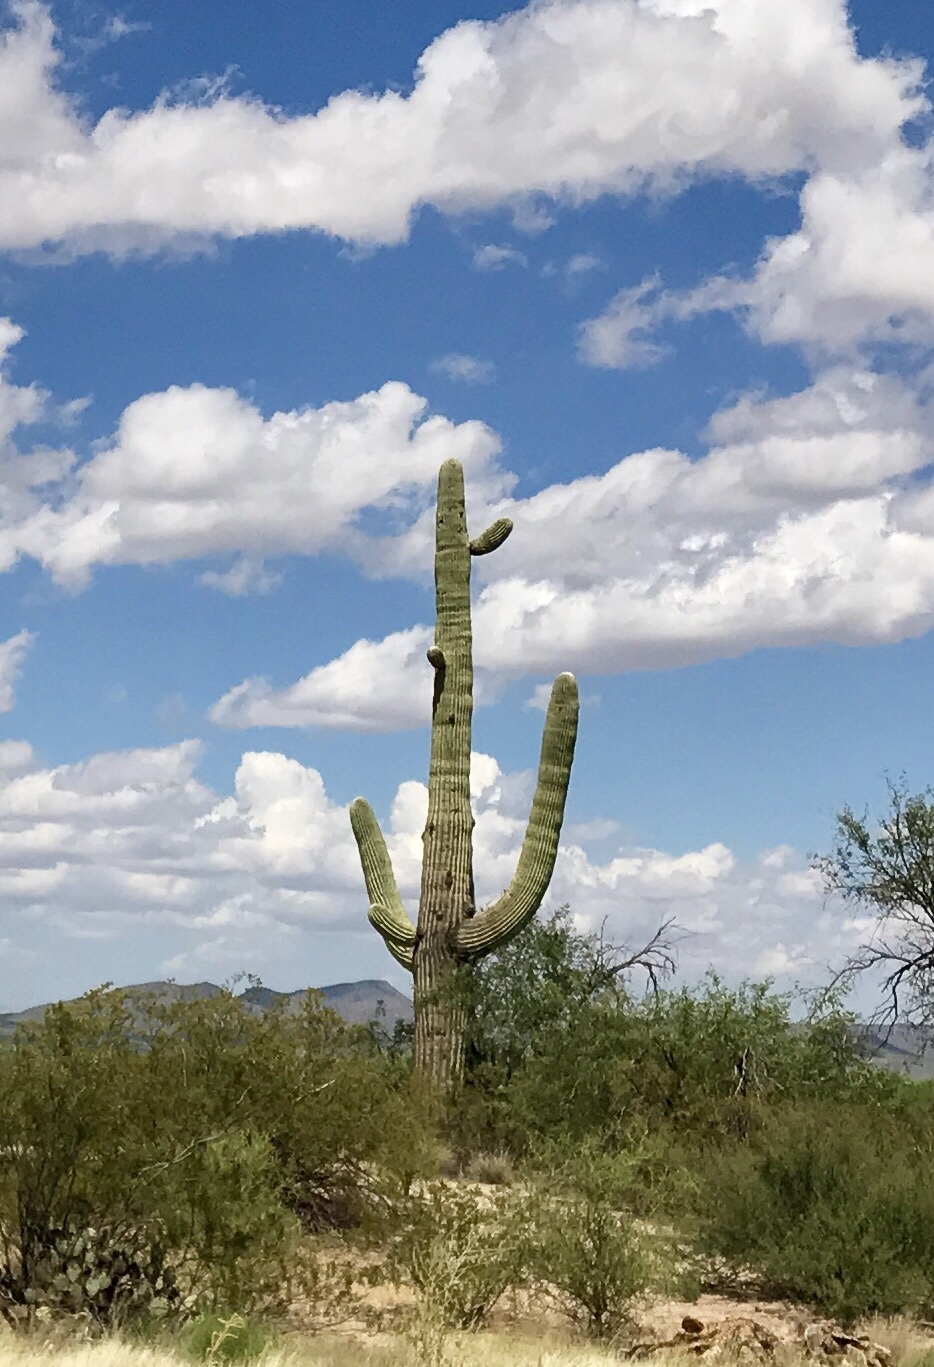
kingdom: Plantae
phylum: Tracheophyta
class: Magnoliopsida
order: Caryophyllales
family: Cactaceae
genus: Carnegiea
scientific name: Carnegiea gigantea
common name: Saguaro
